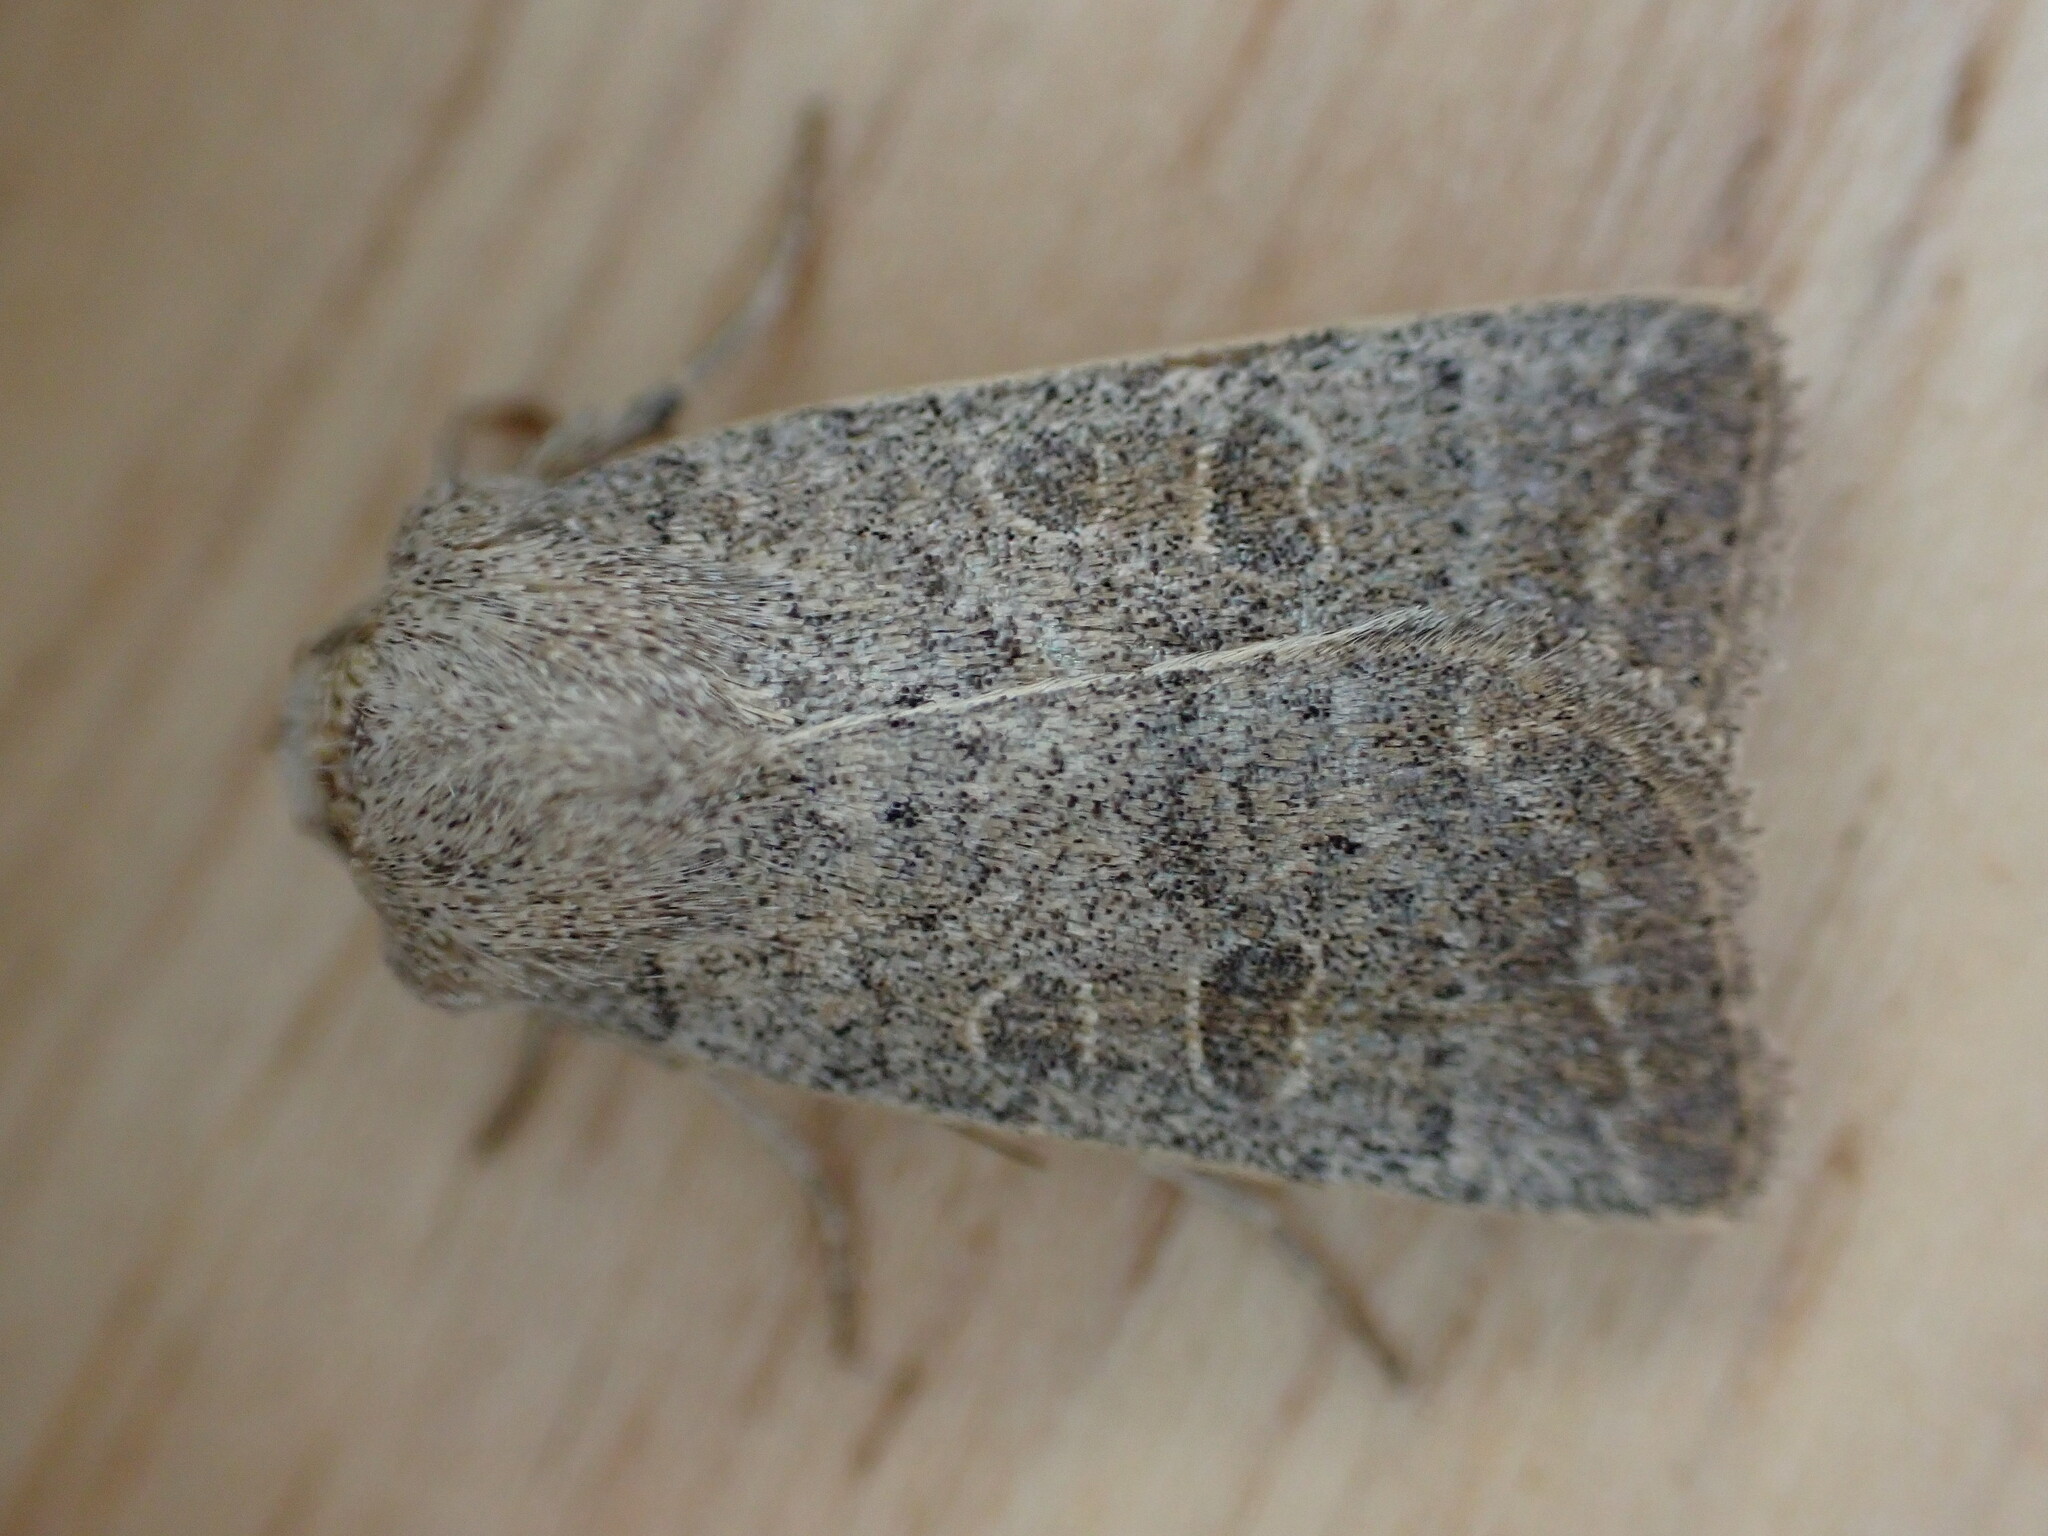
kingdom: Animalia
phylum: Arthropoda
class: Insecta
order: Lepidoptera
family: Noctuidae
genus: Hoplodrina
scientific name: Hoplodrina ambigua
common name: Vine's rustic
